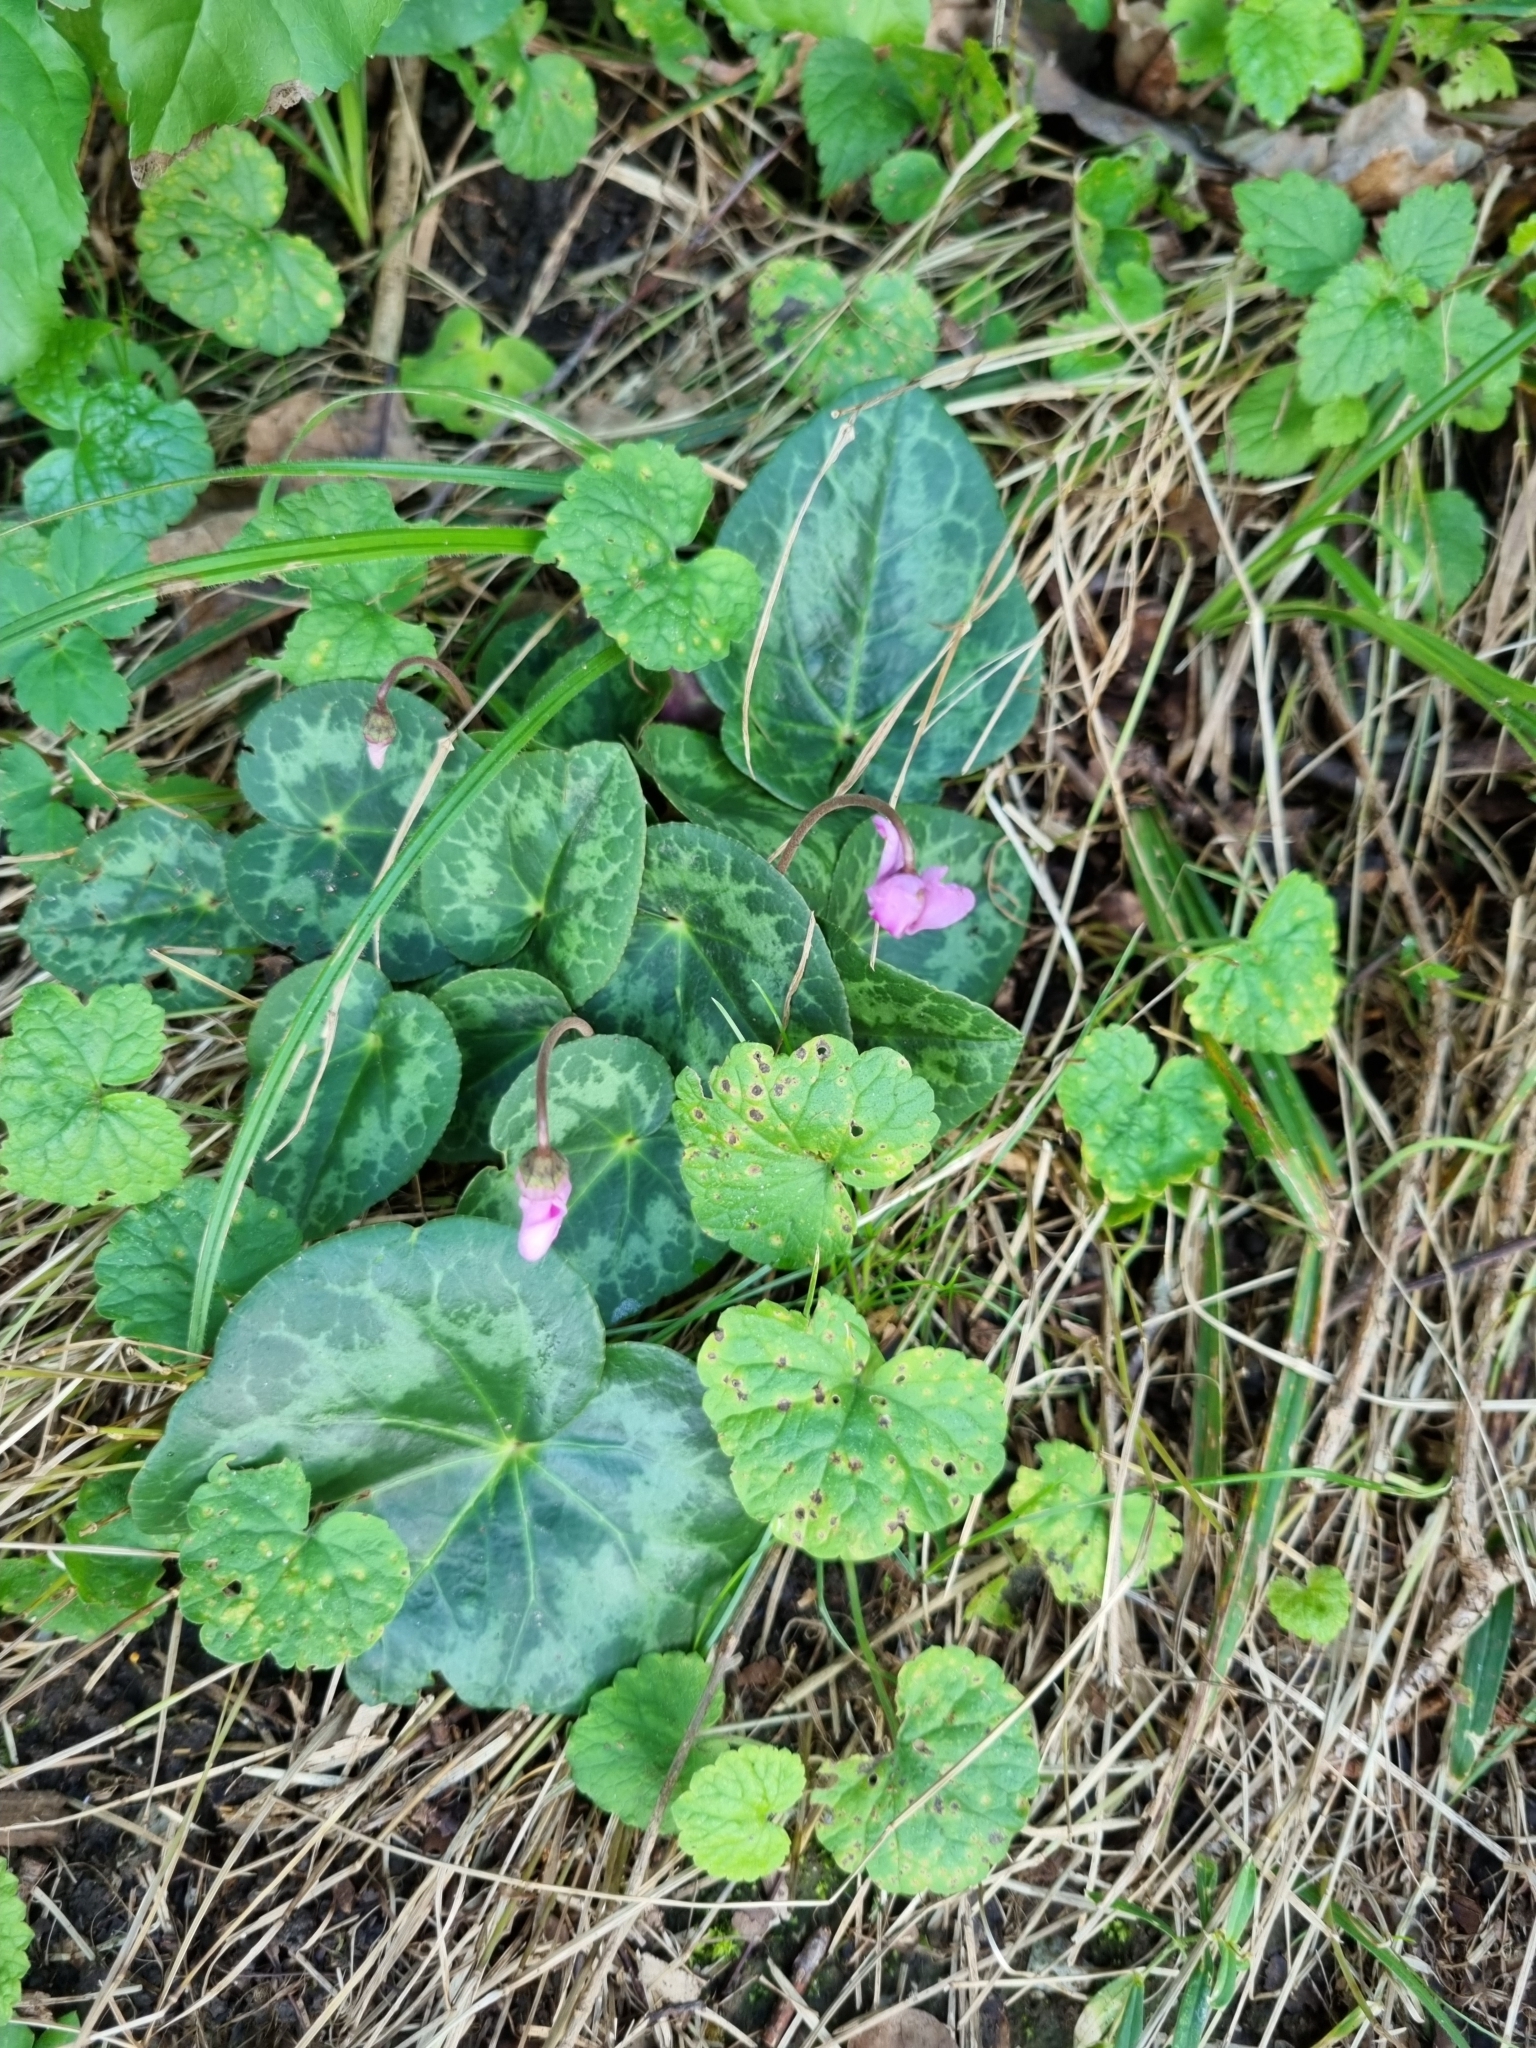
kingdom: Plantae
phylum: Tracheophyta
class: Magnoliopsida
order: Ericales
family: Primulaceae
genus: Cyclamen
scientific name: Cyclamen purpurascens
